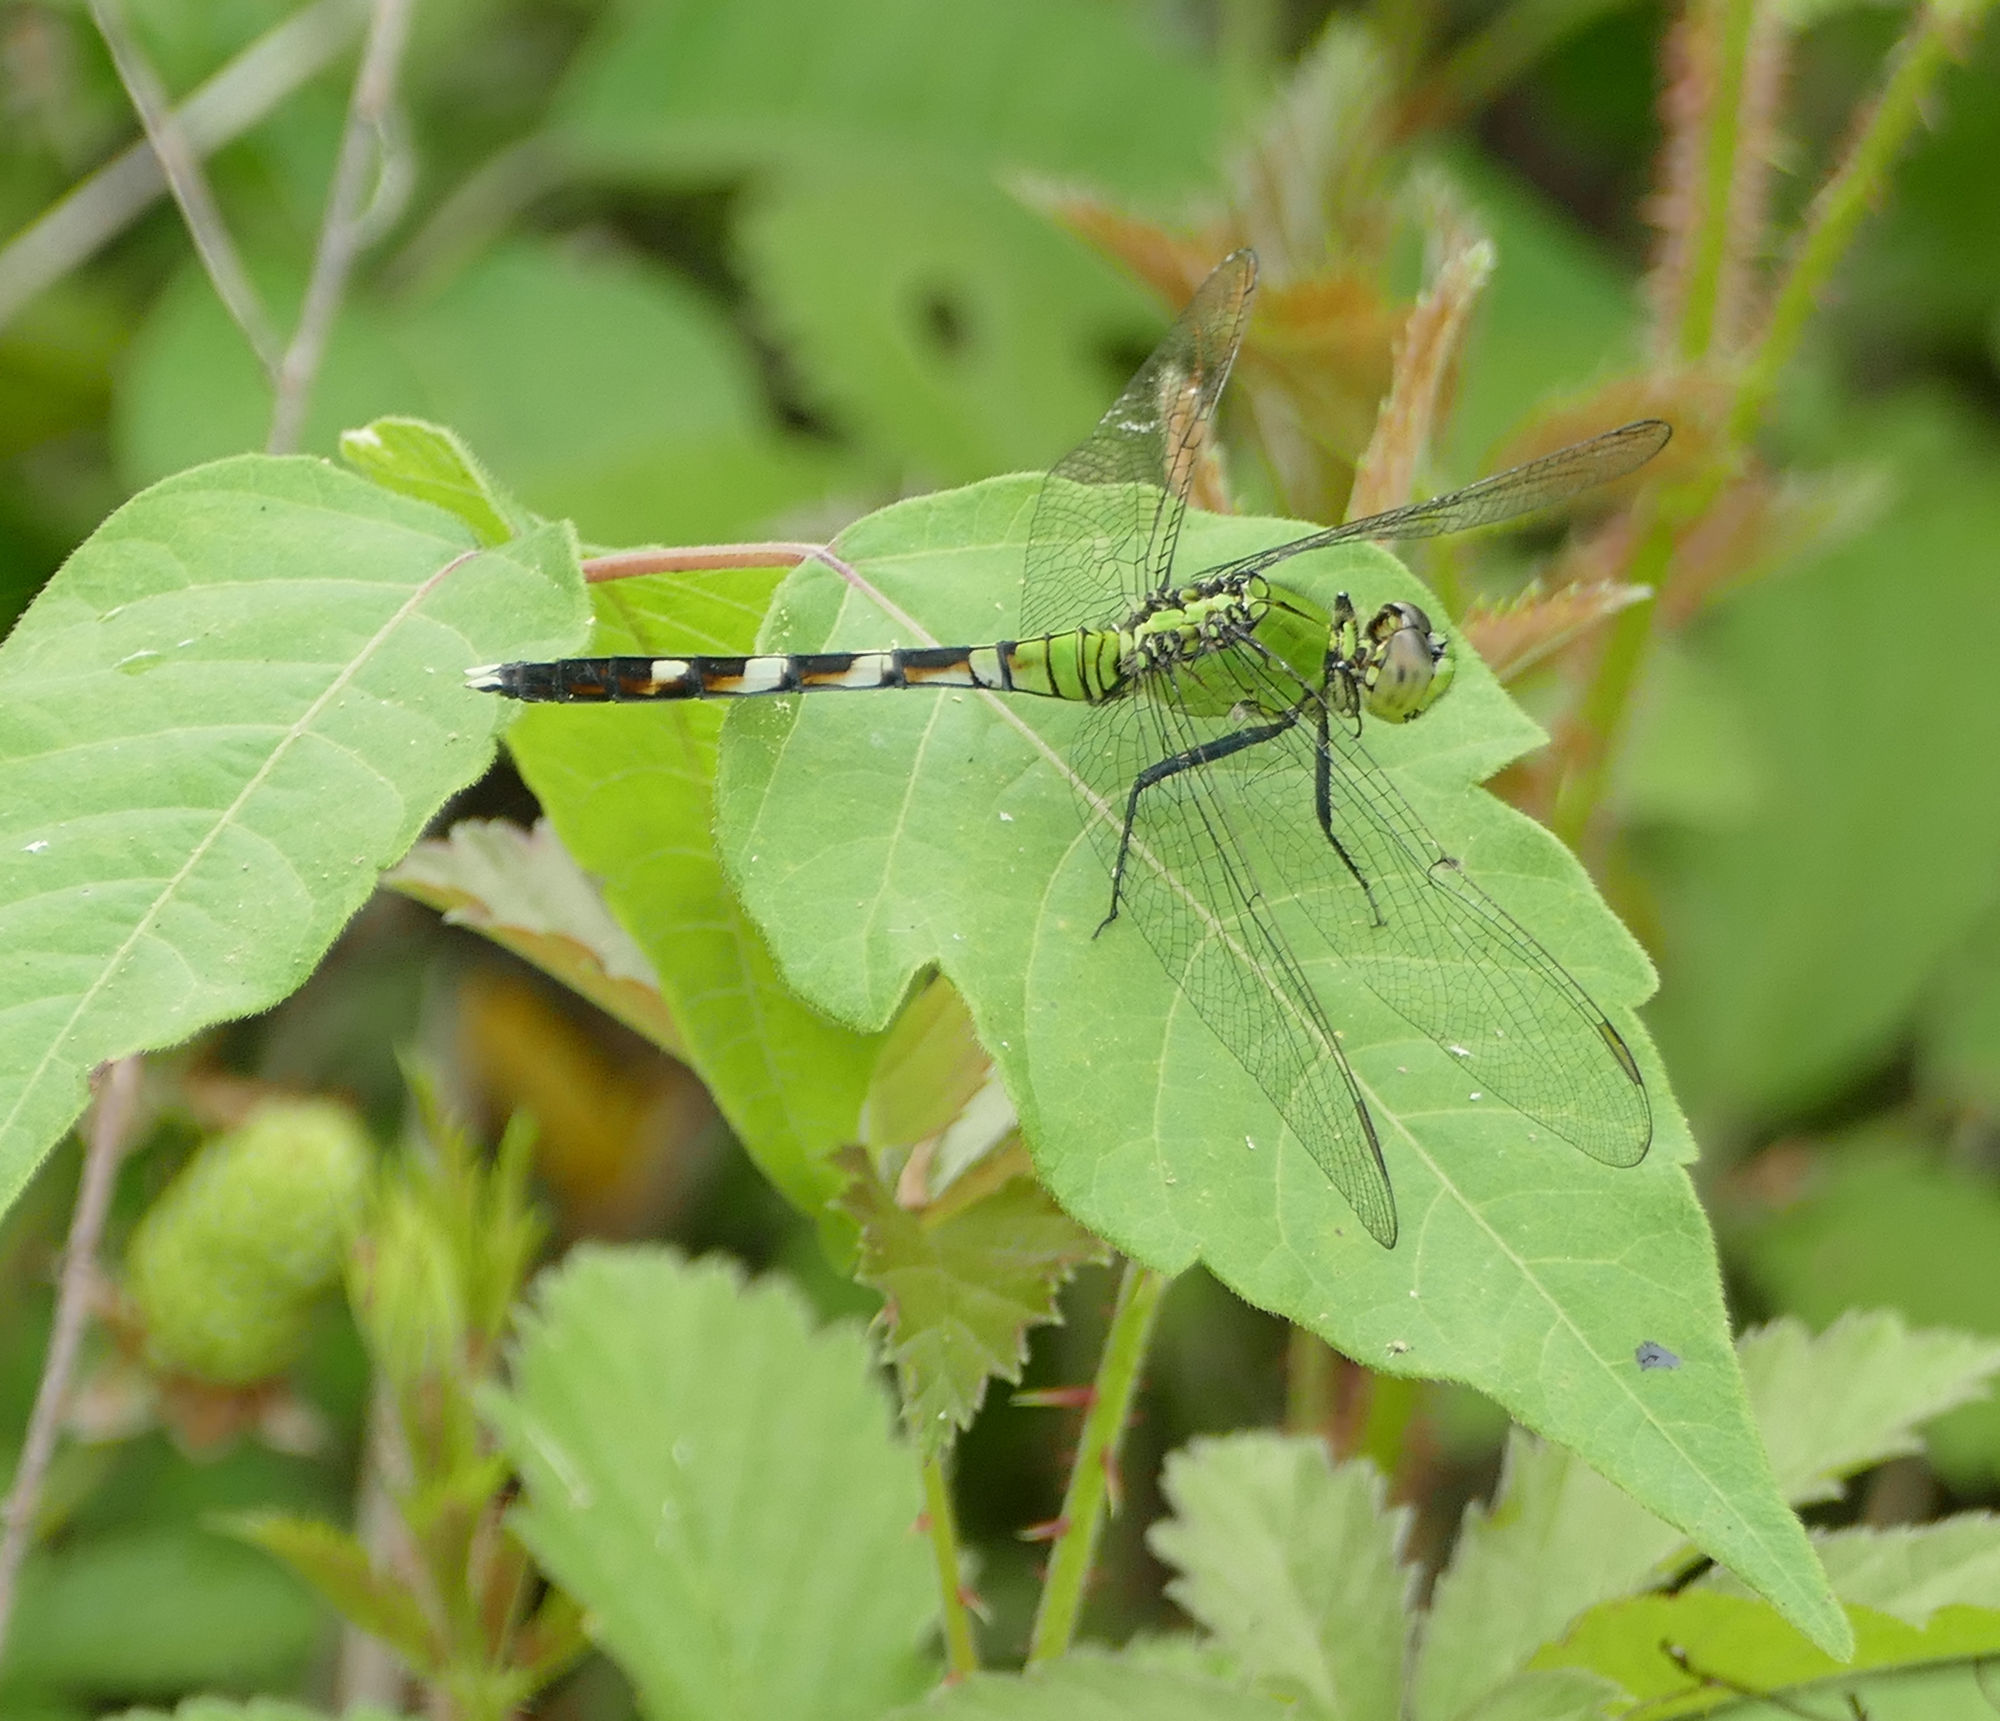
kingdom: Animalia
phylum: Arthropoda
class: Insecta
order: Odonata
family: Libellulidae
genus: Erythemis
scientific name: Erythemis simplicicollis
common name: Eastern pondhawk
